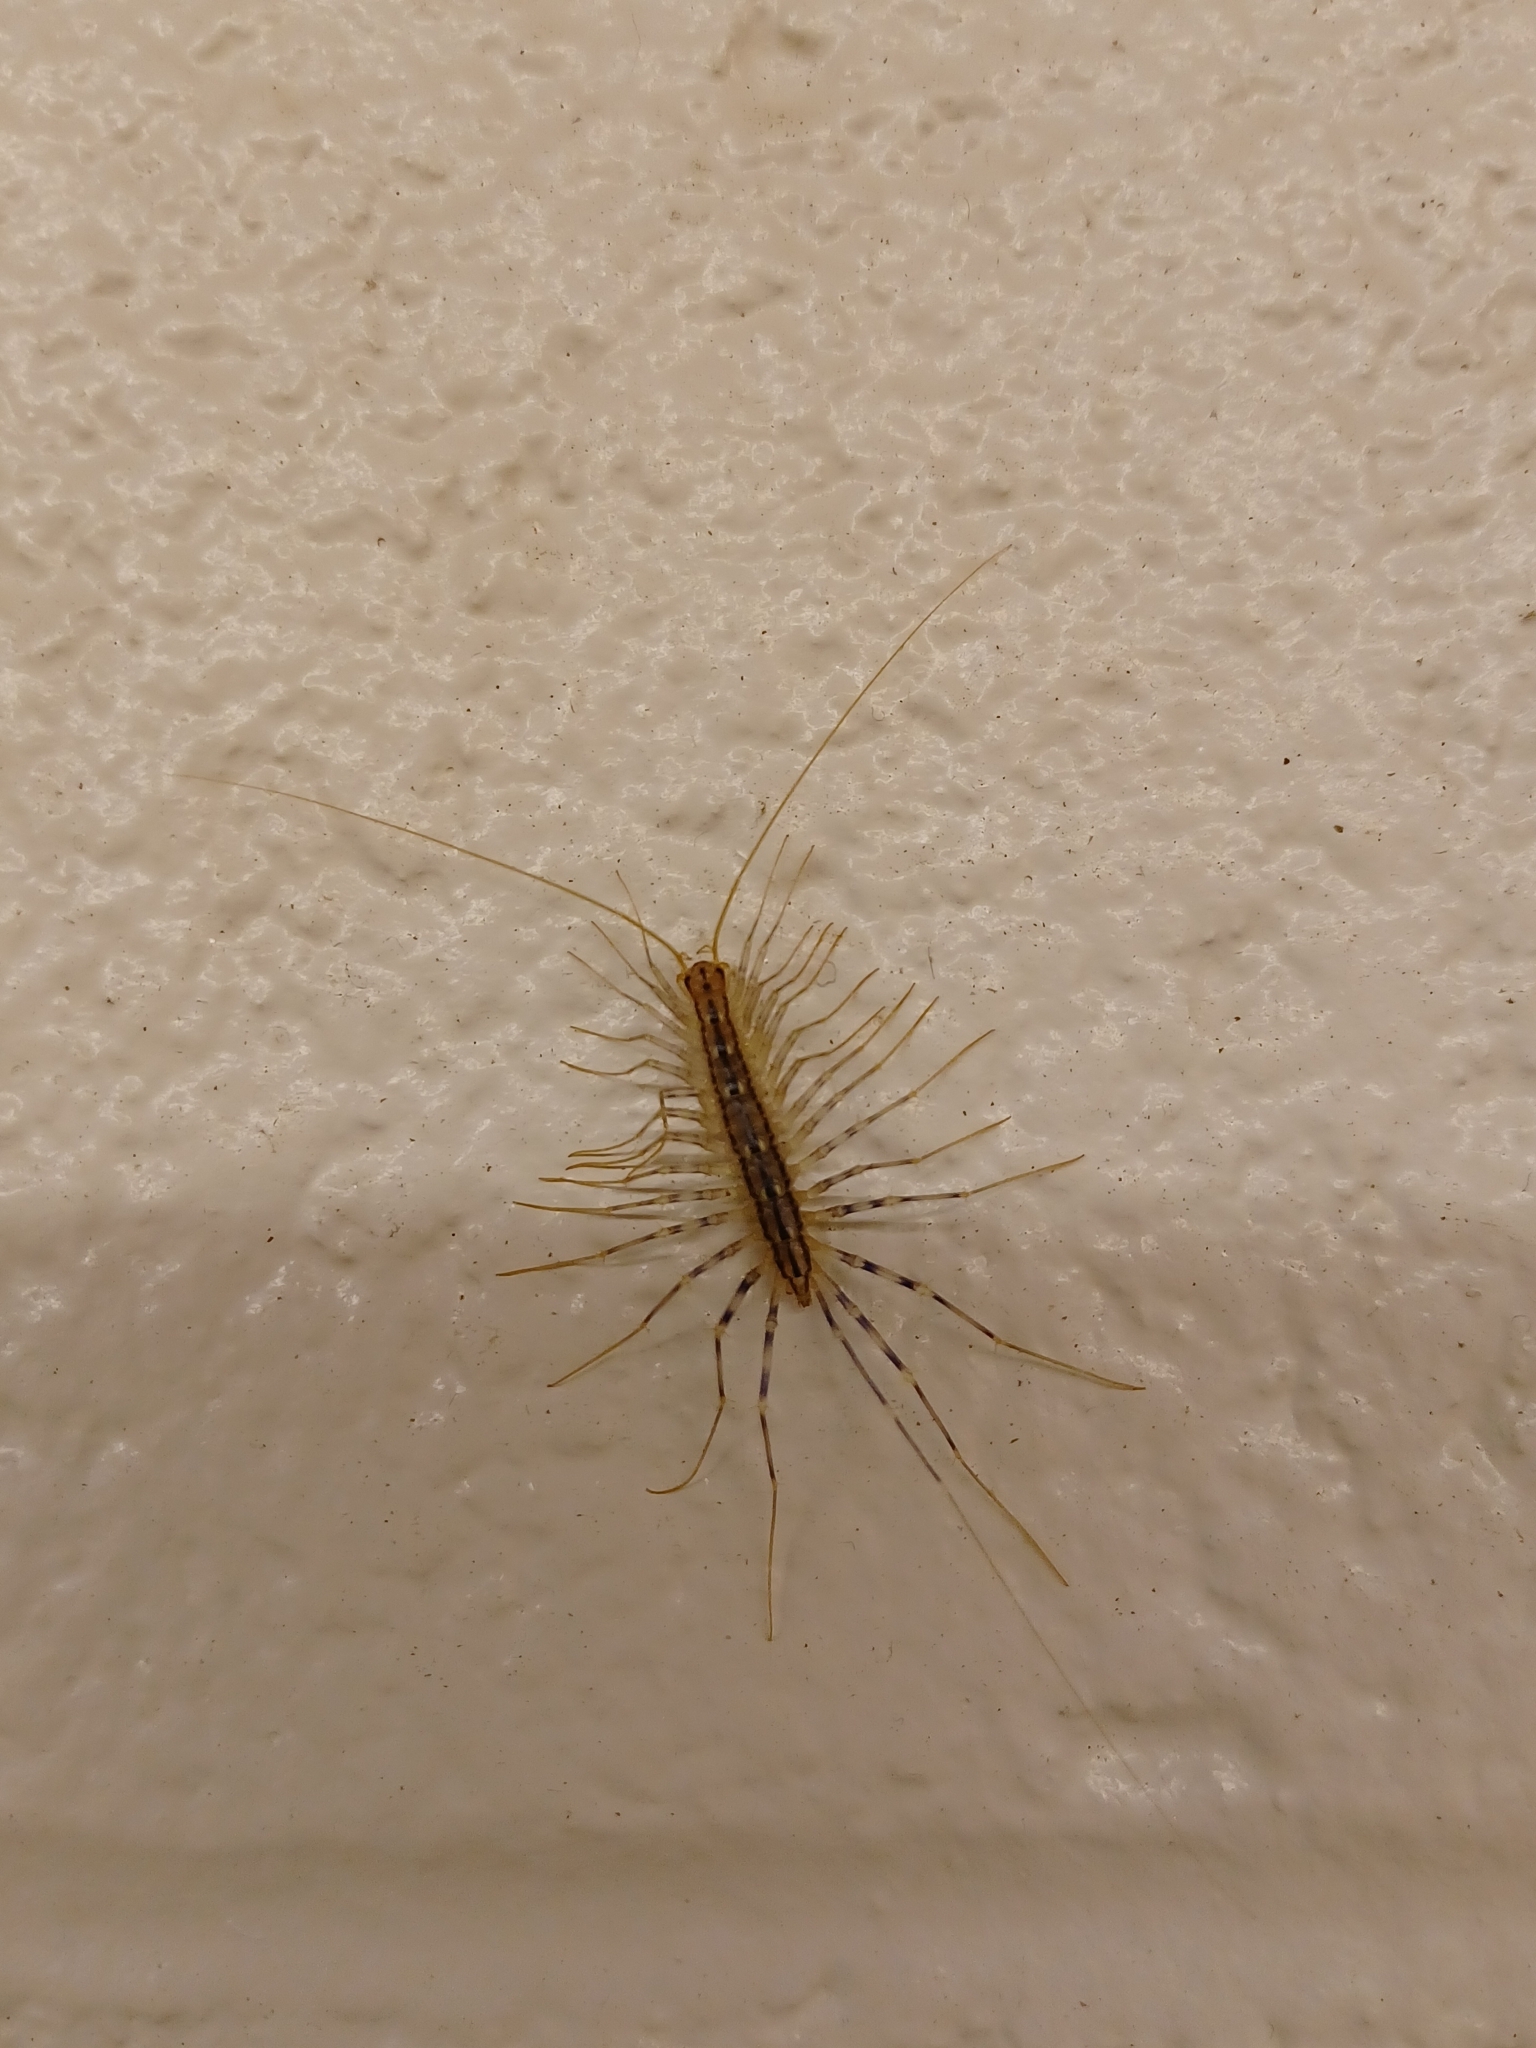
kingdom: Animalia
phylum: Arthropoda
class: Chilopoda
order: Scutigeromorpha
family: Scutigeridae
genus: Scutigera
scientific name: Scutigera coleoptrata
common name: House centipede
